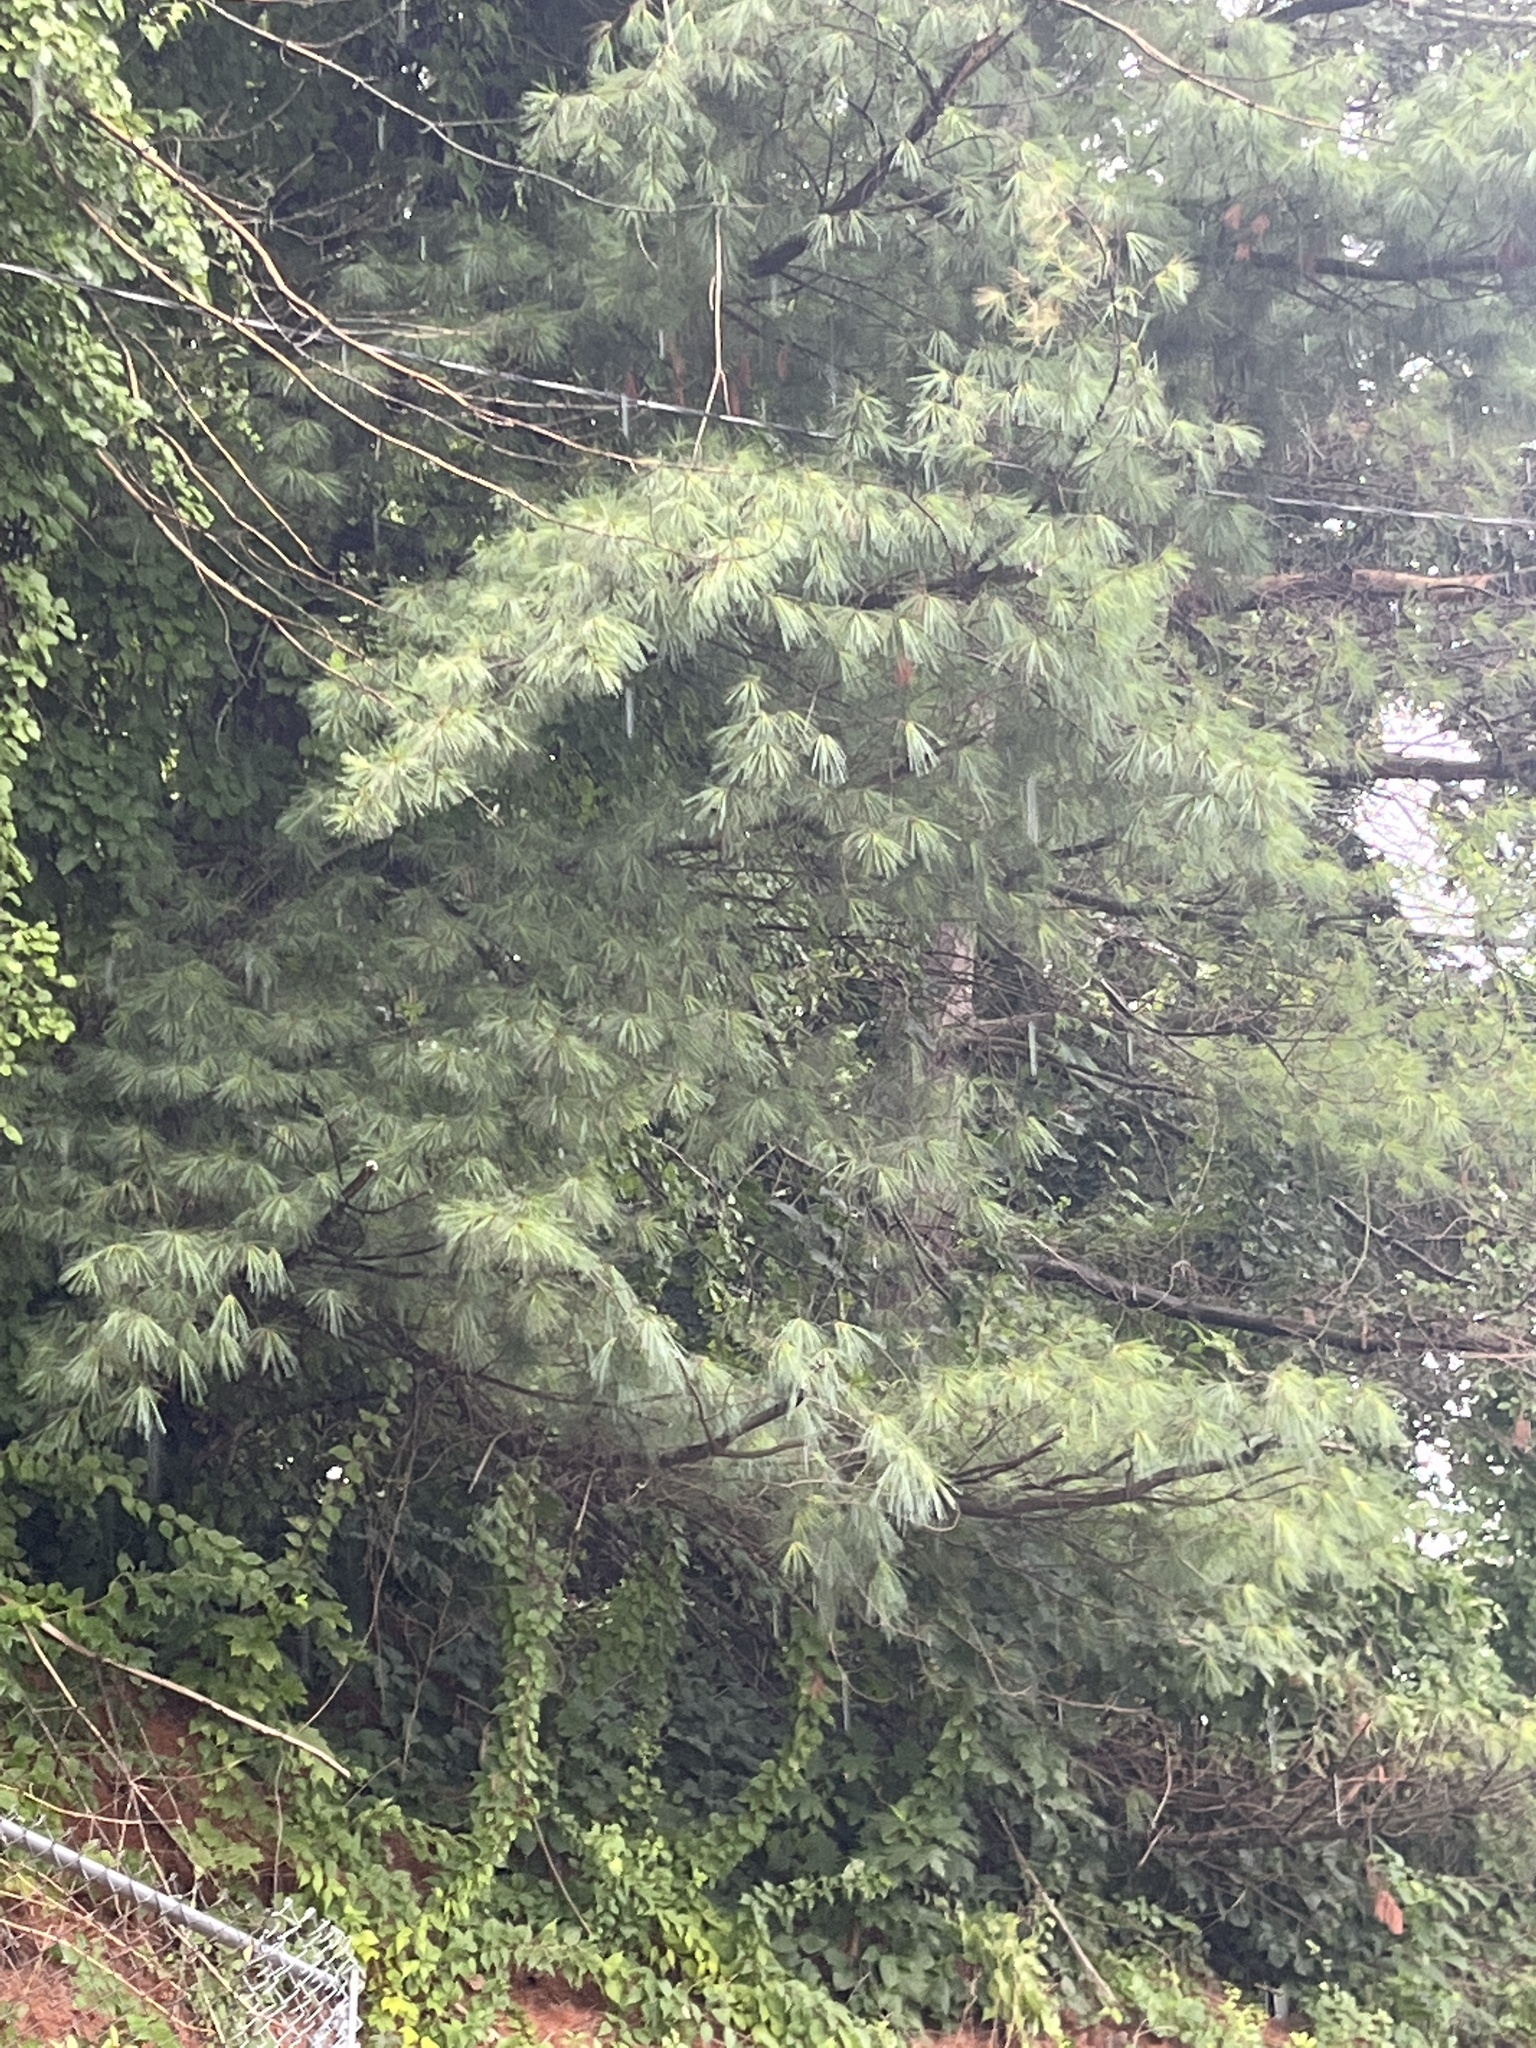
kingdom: Plantae
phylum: Tracheophyta
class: Pinopsida
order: Pinales
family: Pinaceae
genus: Pinus
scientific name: Pinus strobus
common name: Weymouth pine
